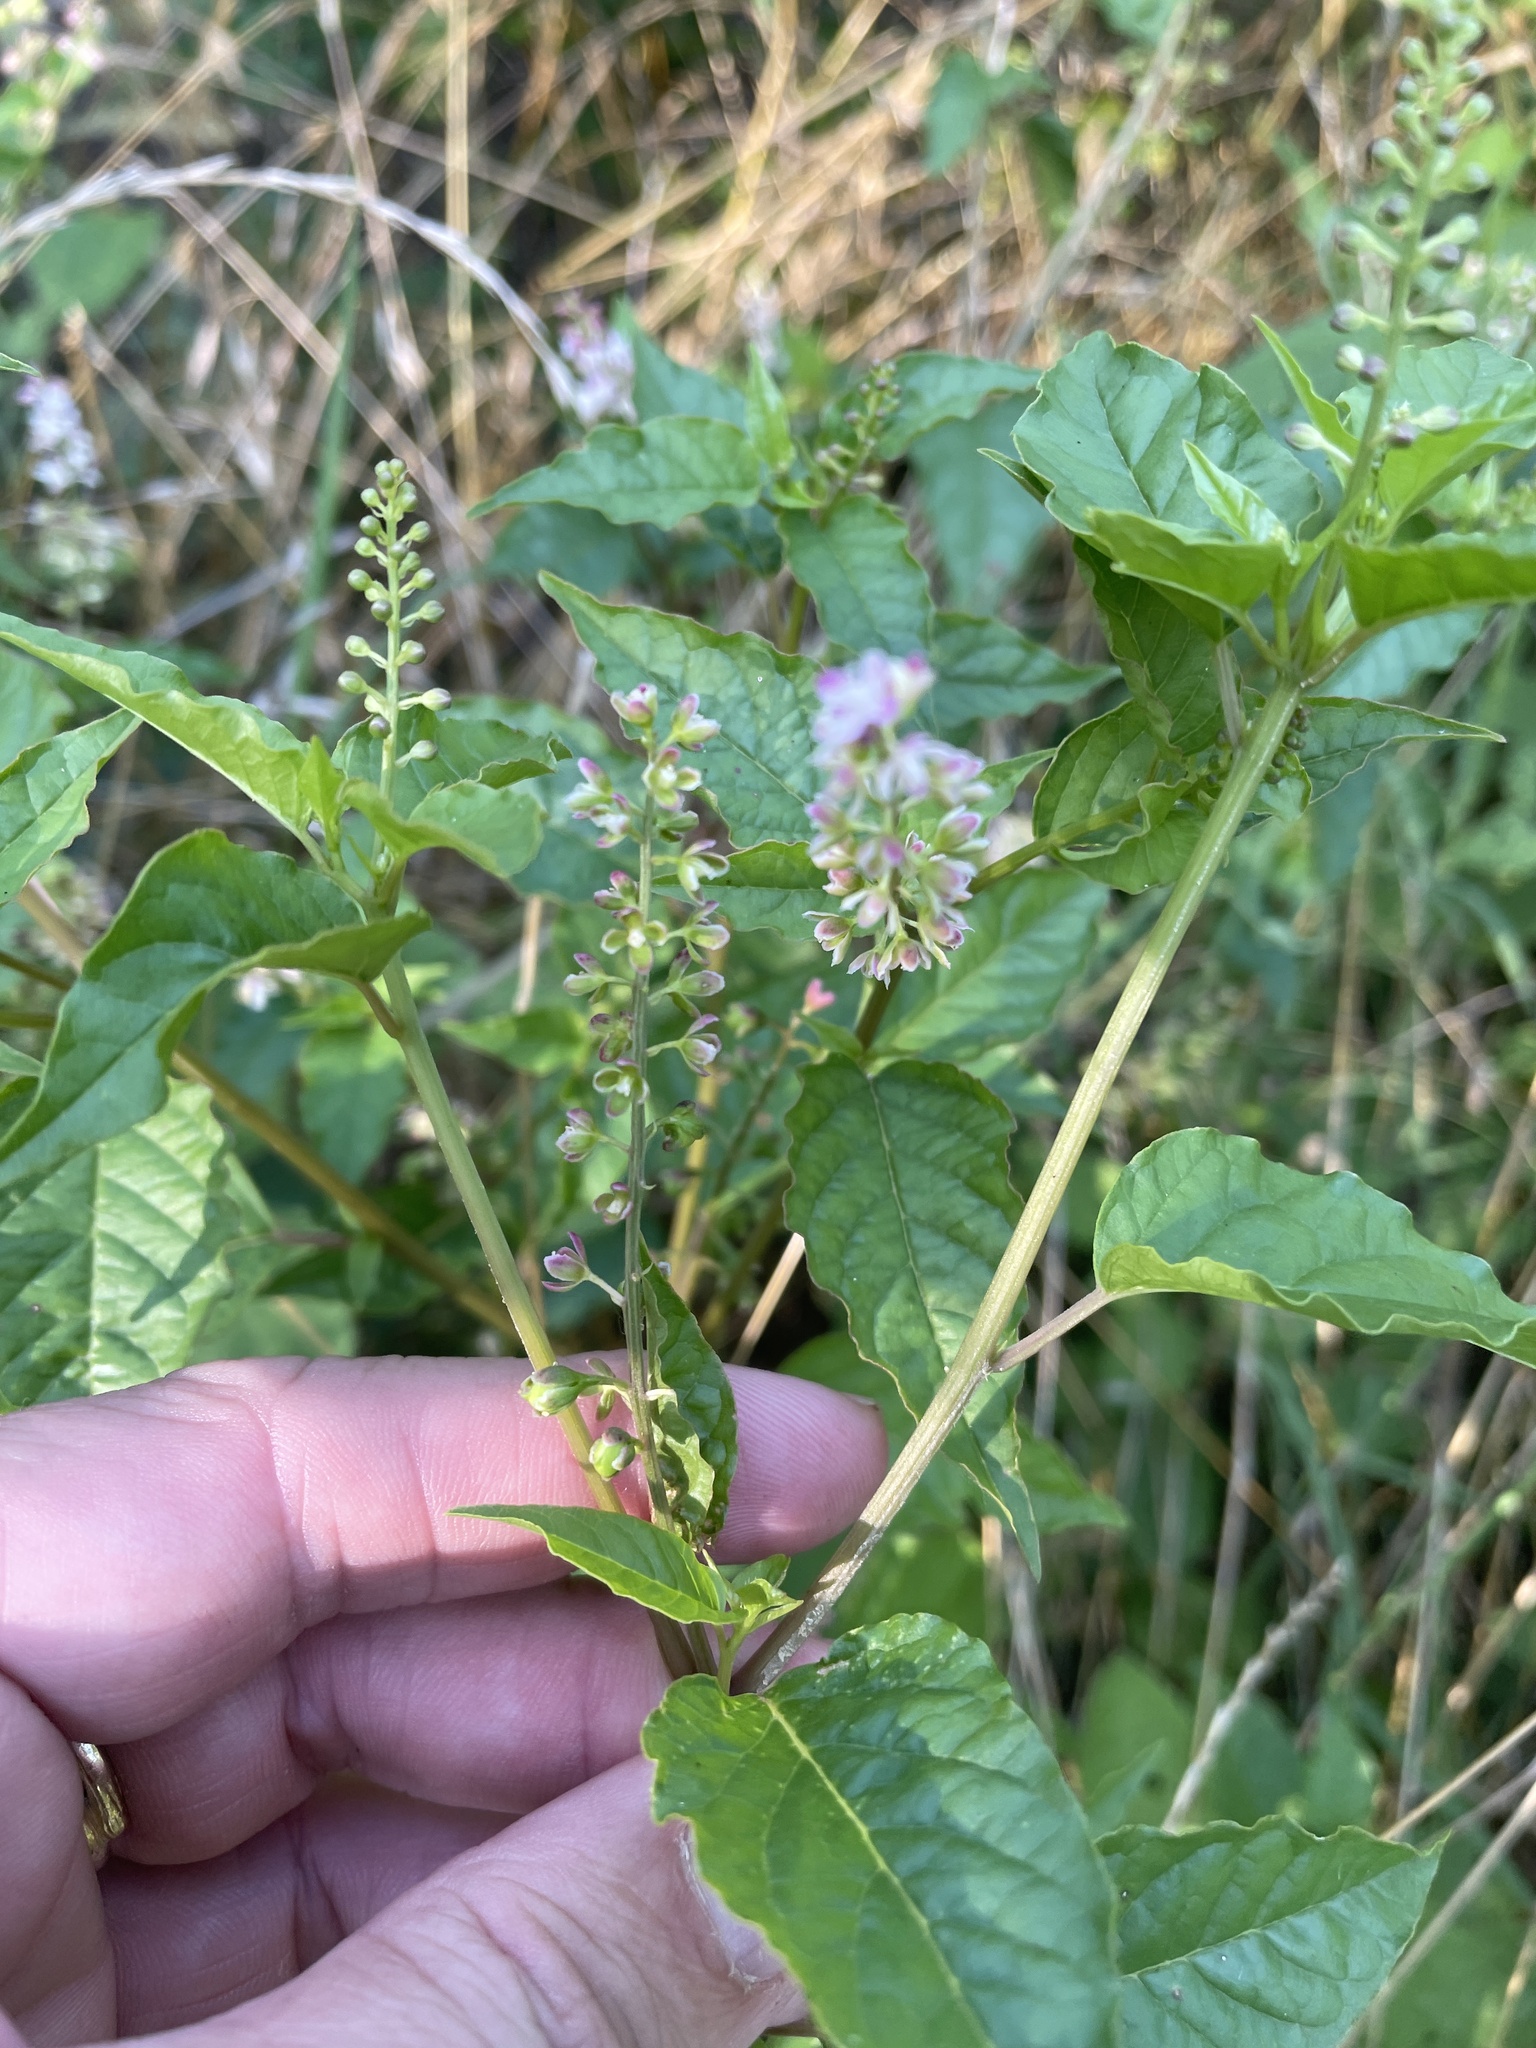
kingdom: Plantae
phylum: Tracheophyta
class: Magnoliopsida
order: Caryophyllales
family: Phytolaccaceae
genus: Rivina
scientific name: Rivina humilis
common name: Rougeplant
